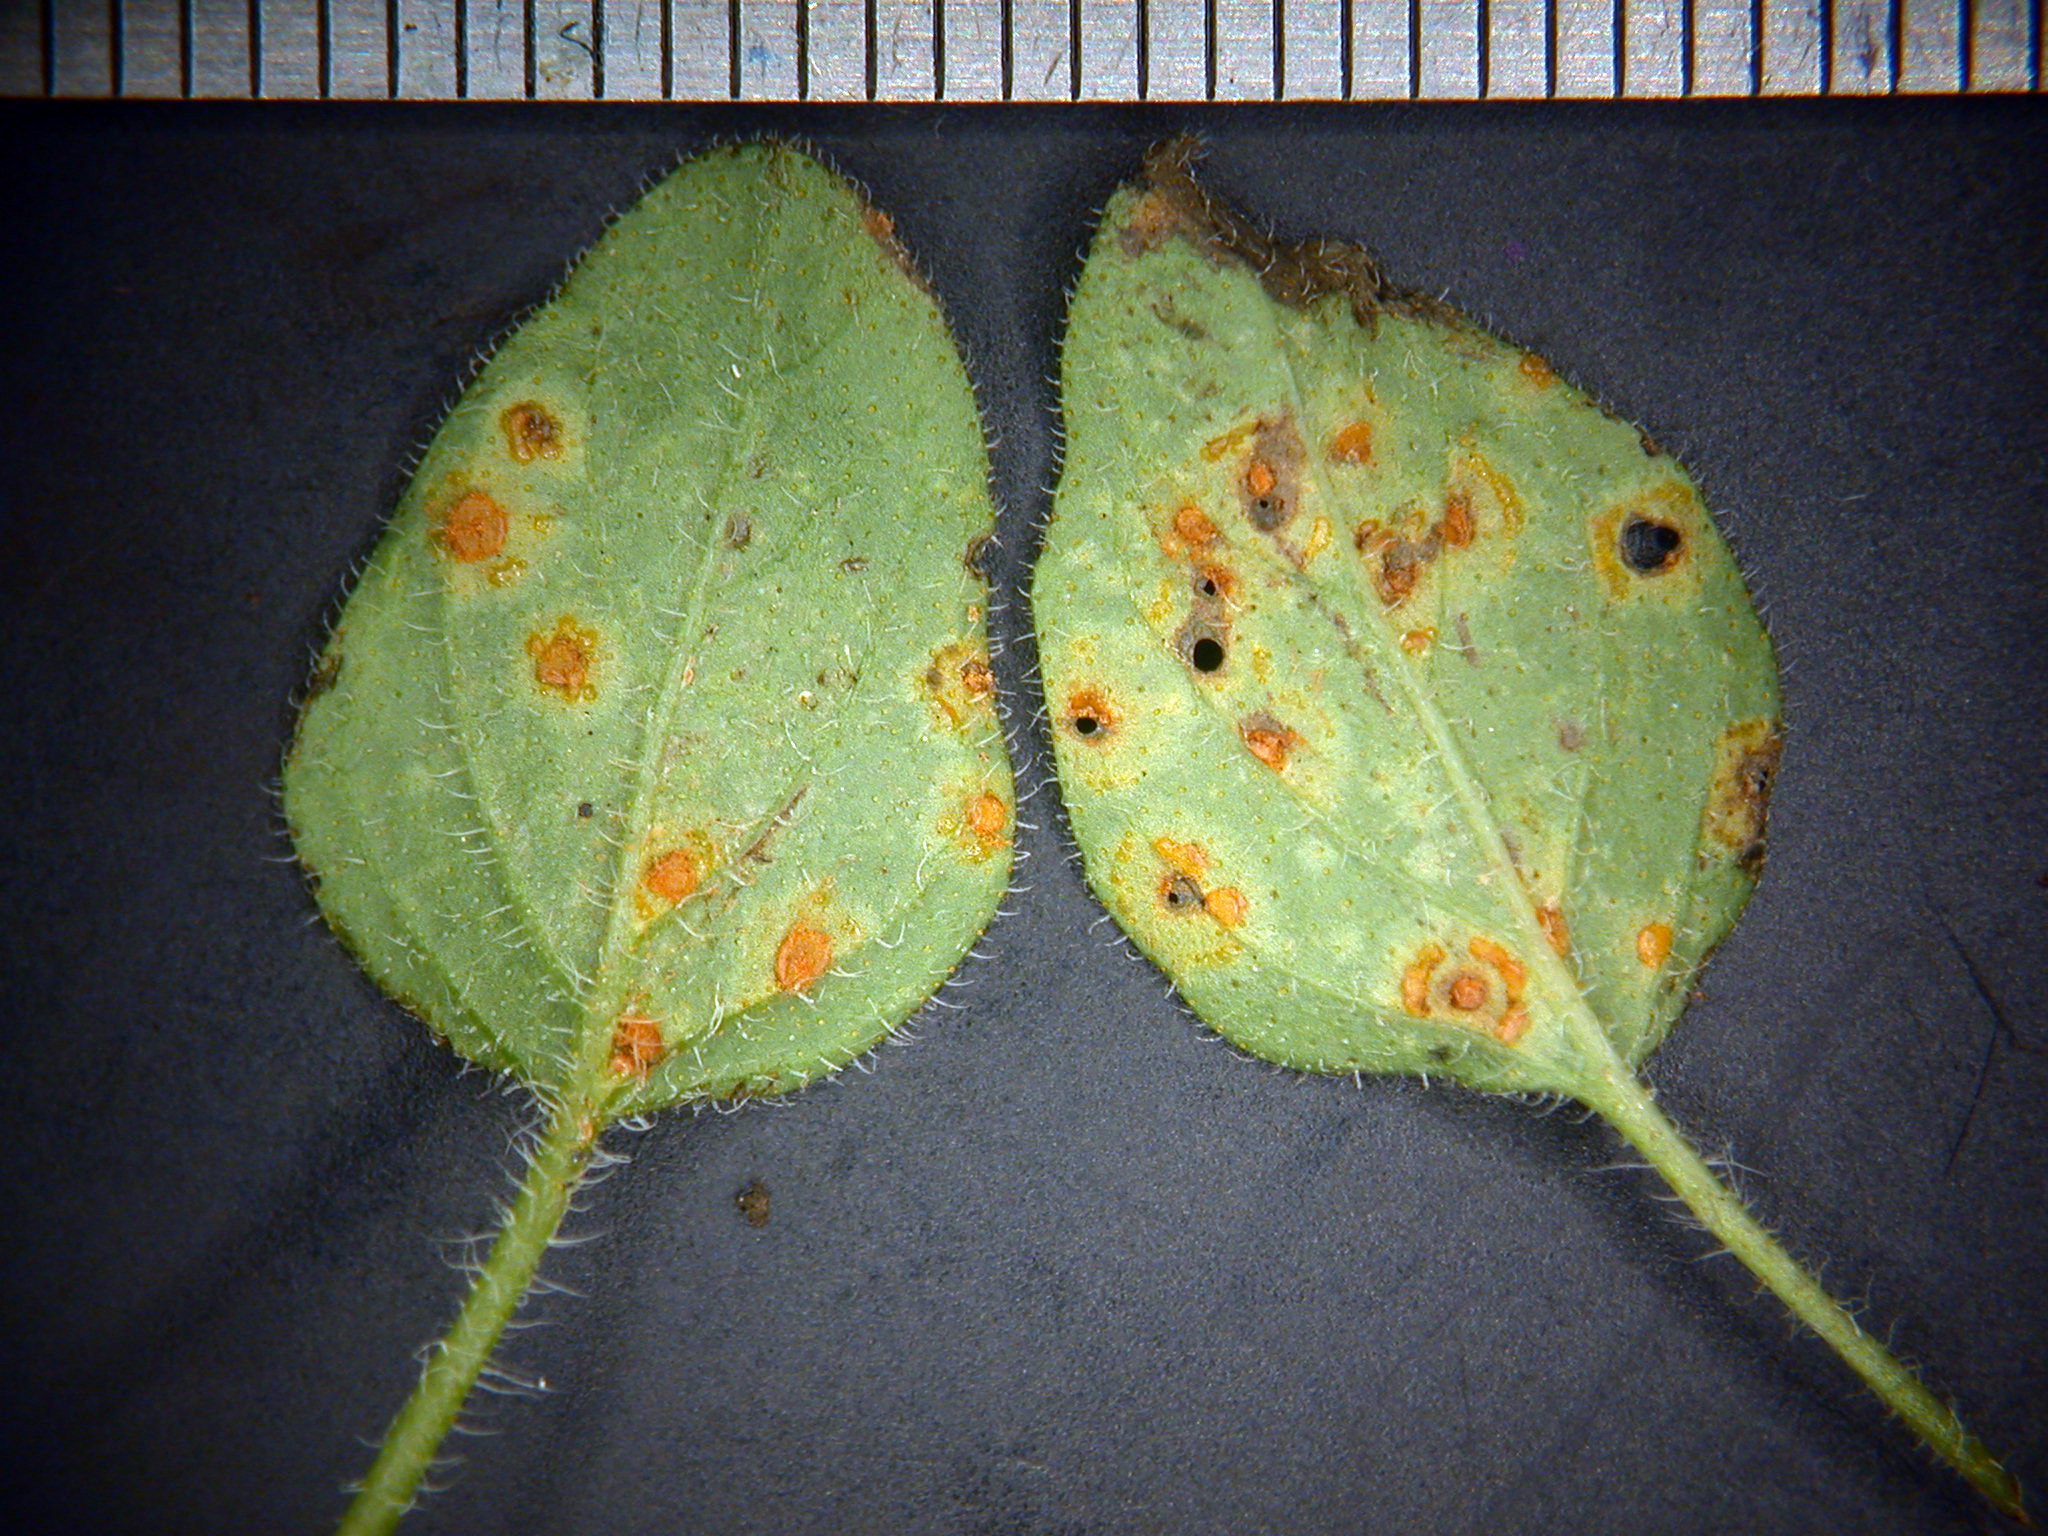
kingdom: Fungi
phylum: Basidiomycota
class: Pucciniomycetes
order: Pucciniales
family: Pucciniaceae
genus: Puccinia
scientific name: Puccinia menthae
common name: Mint rust
